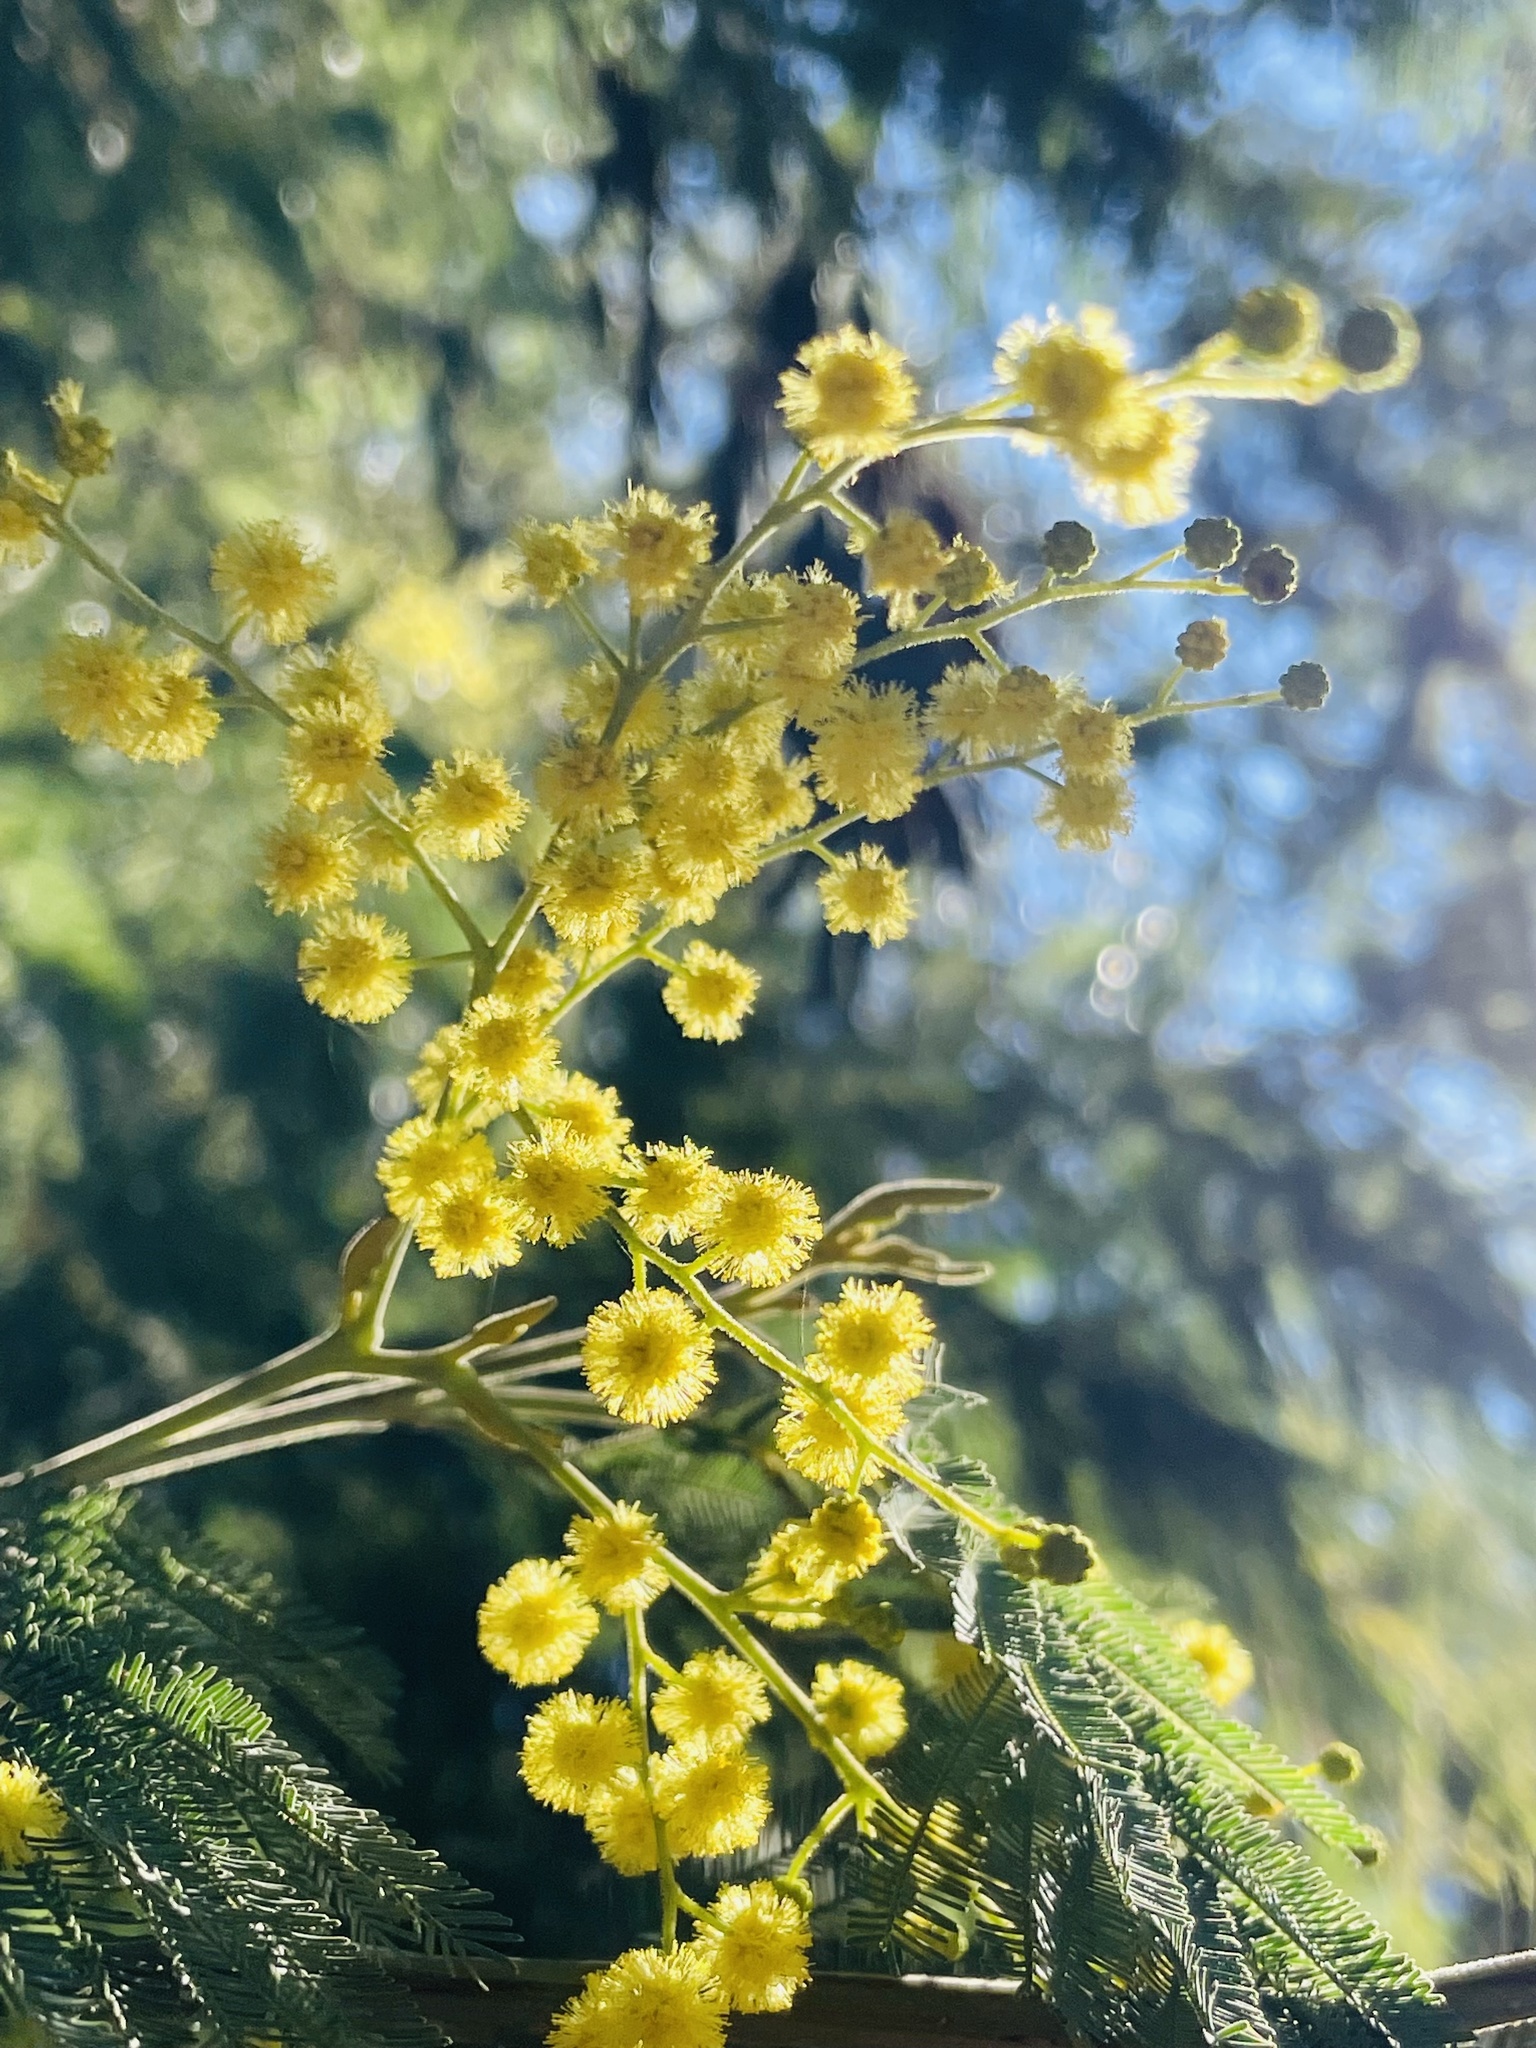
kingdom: Plantae
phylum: Tracheophyta
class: Magnoliopsida
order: Fabales
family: Fabaceae
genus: Acacia
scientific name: Acacia dealbata
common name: Silver wattle
